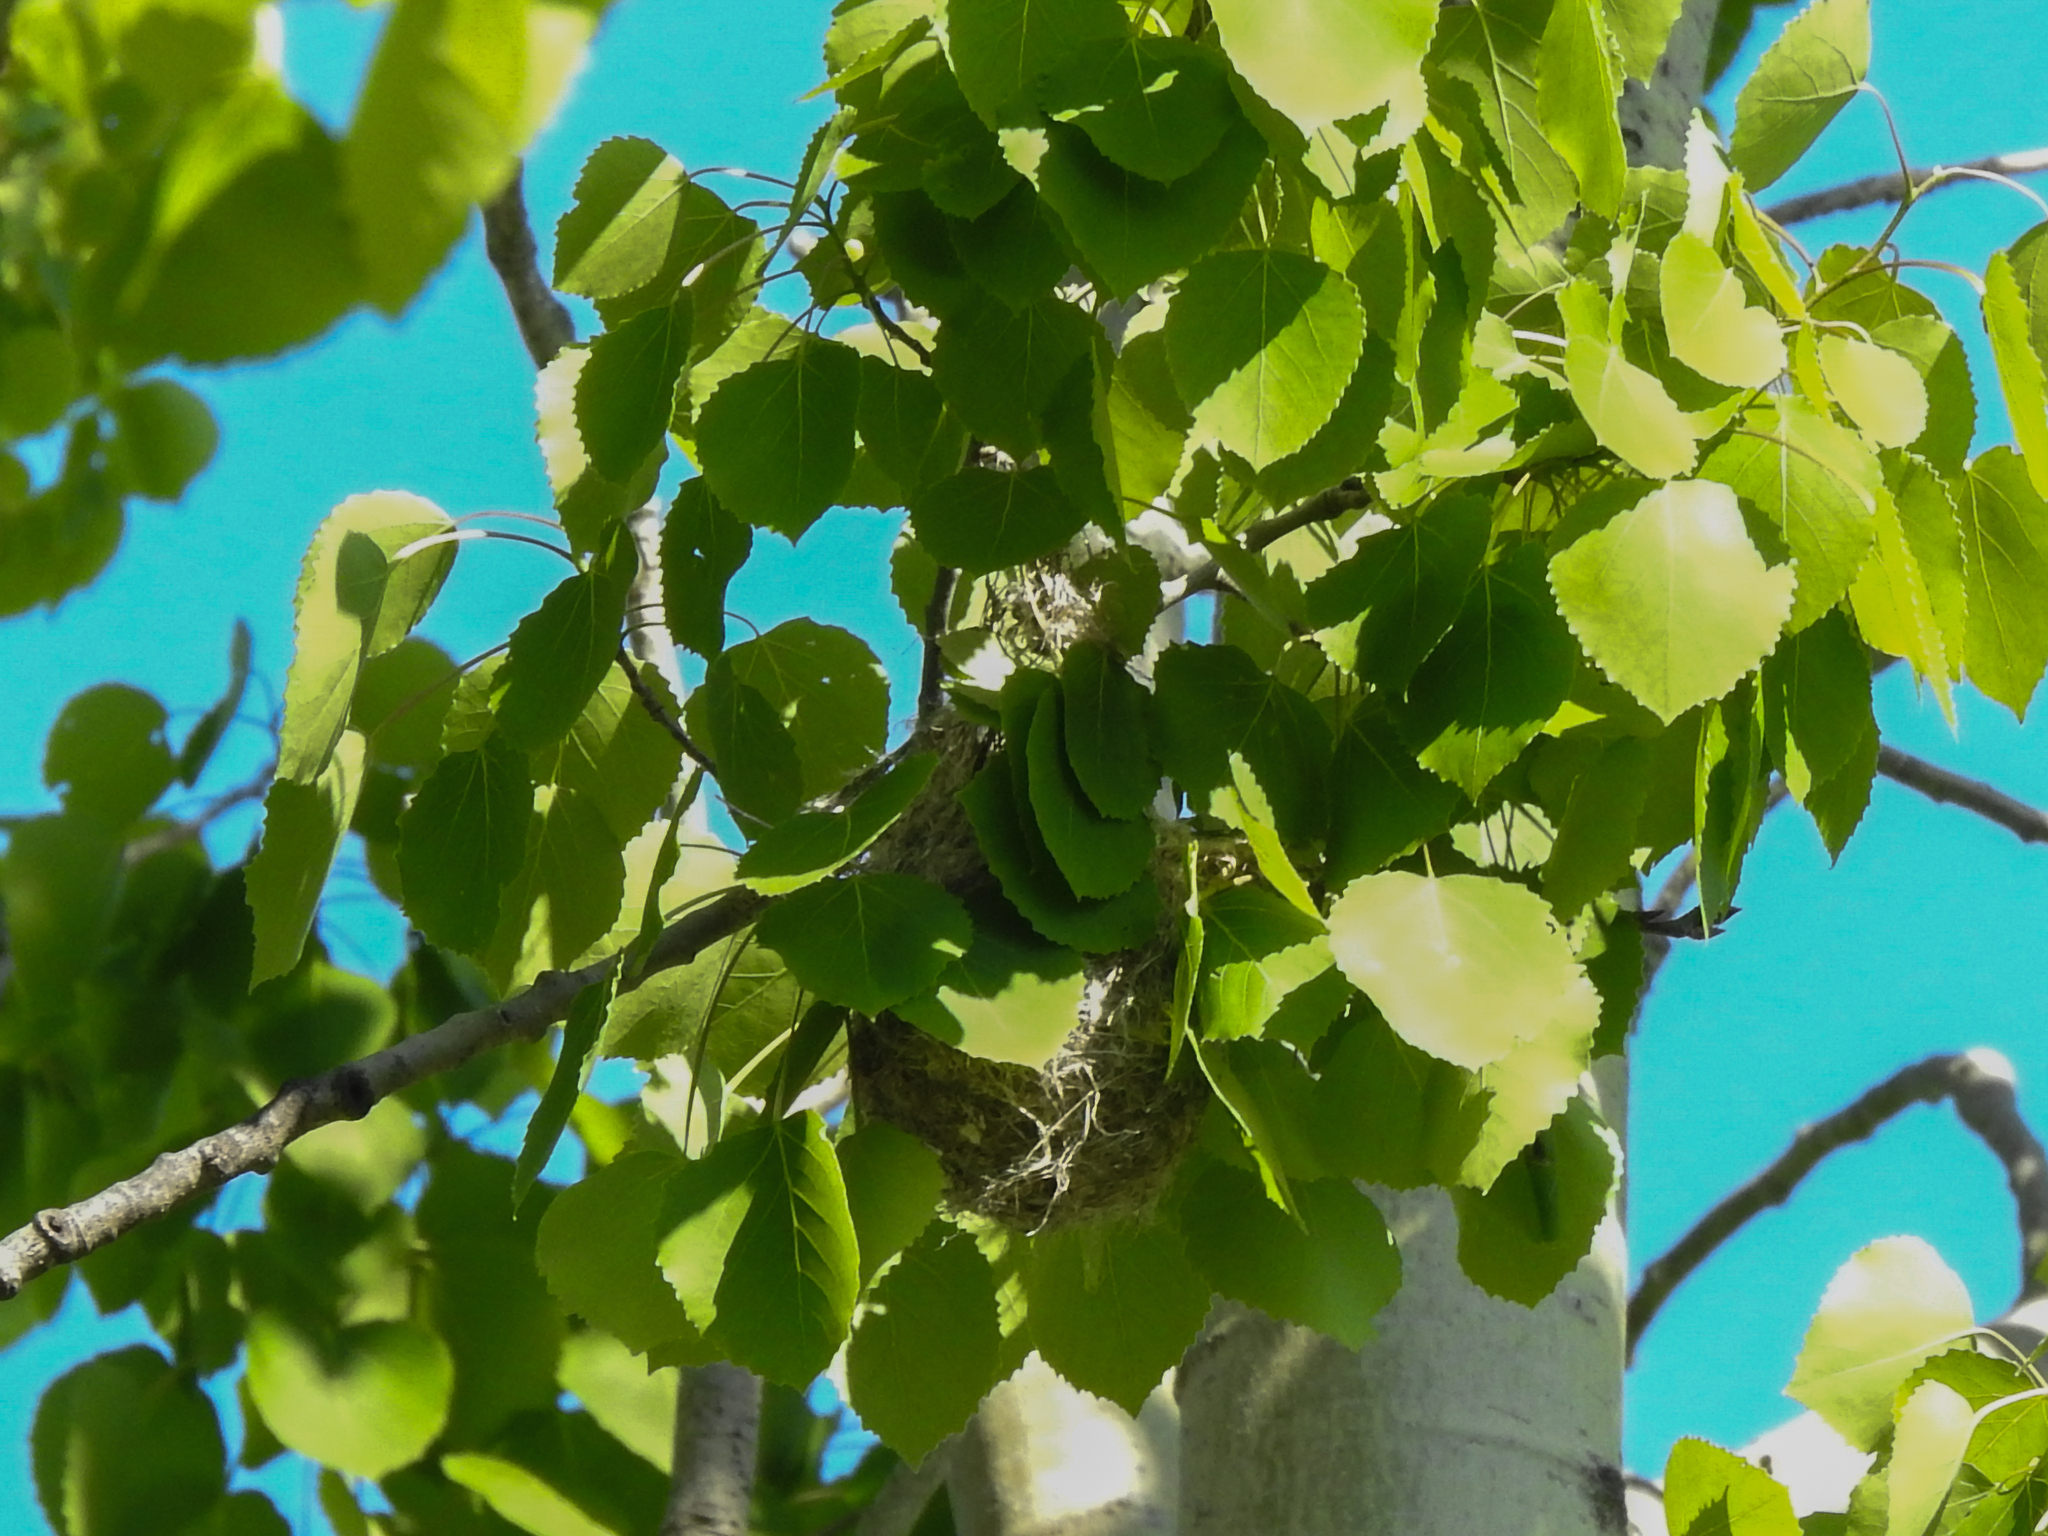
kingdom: Animalia
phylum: Chordata
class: Aves
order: Passeriformes
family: Icteridae
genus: Icterus
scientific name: Icterus galbula
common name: Baltimore oriole
